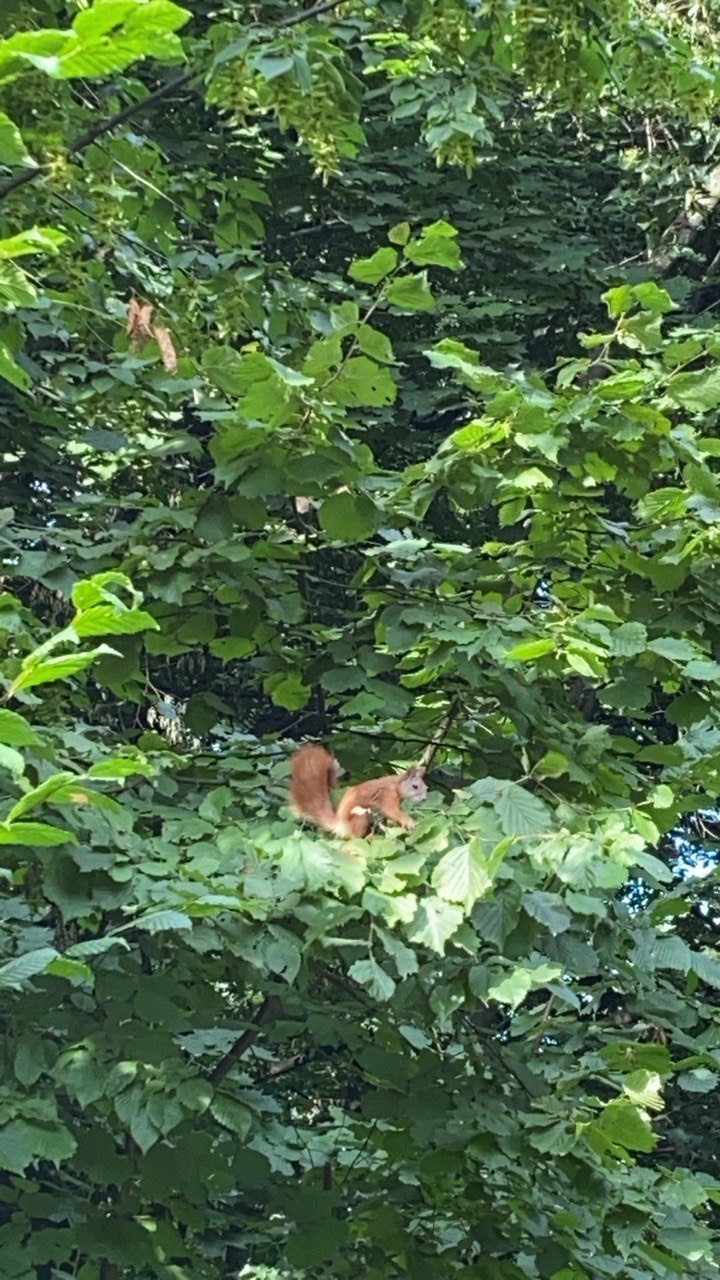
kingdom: Animalia
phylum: Chordata
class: Mammalia
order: Rodentia
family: Sciuridae
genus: Sciurus
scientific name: Sciurus vulgaris
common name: Eurasian red squirrel
